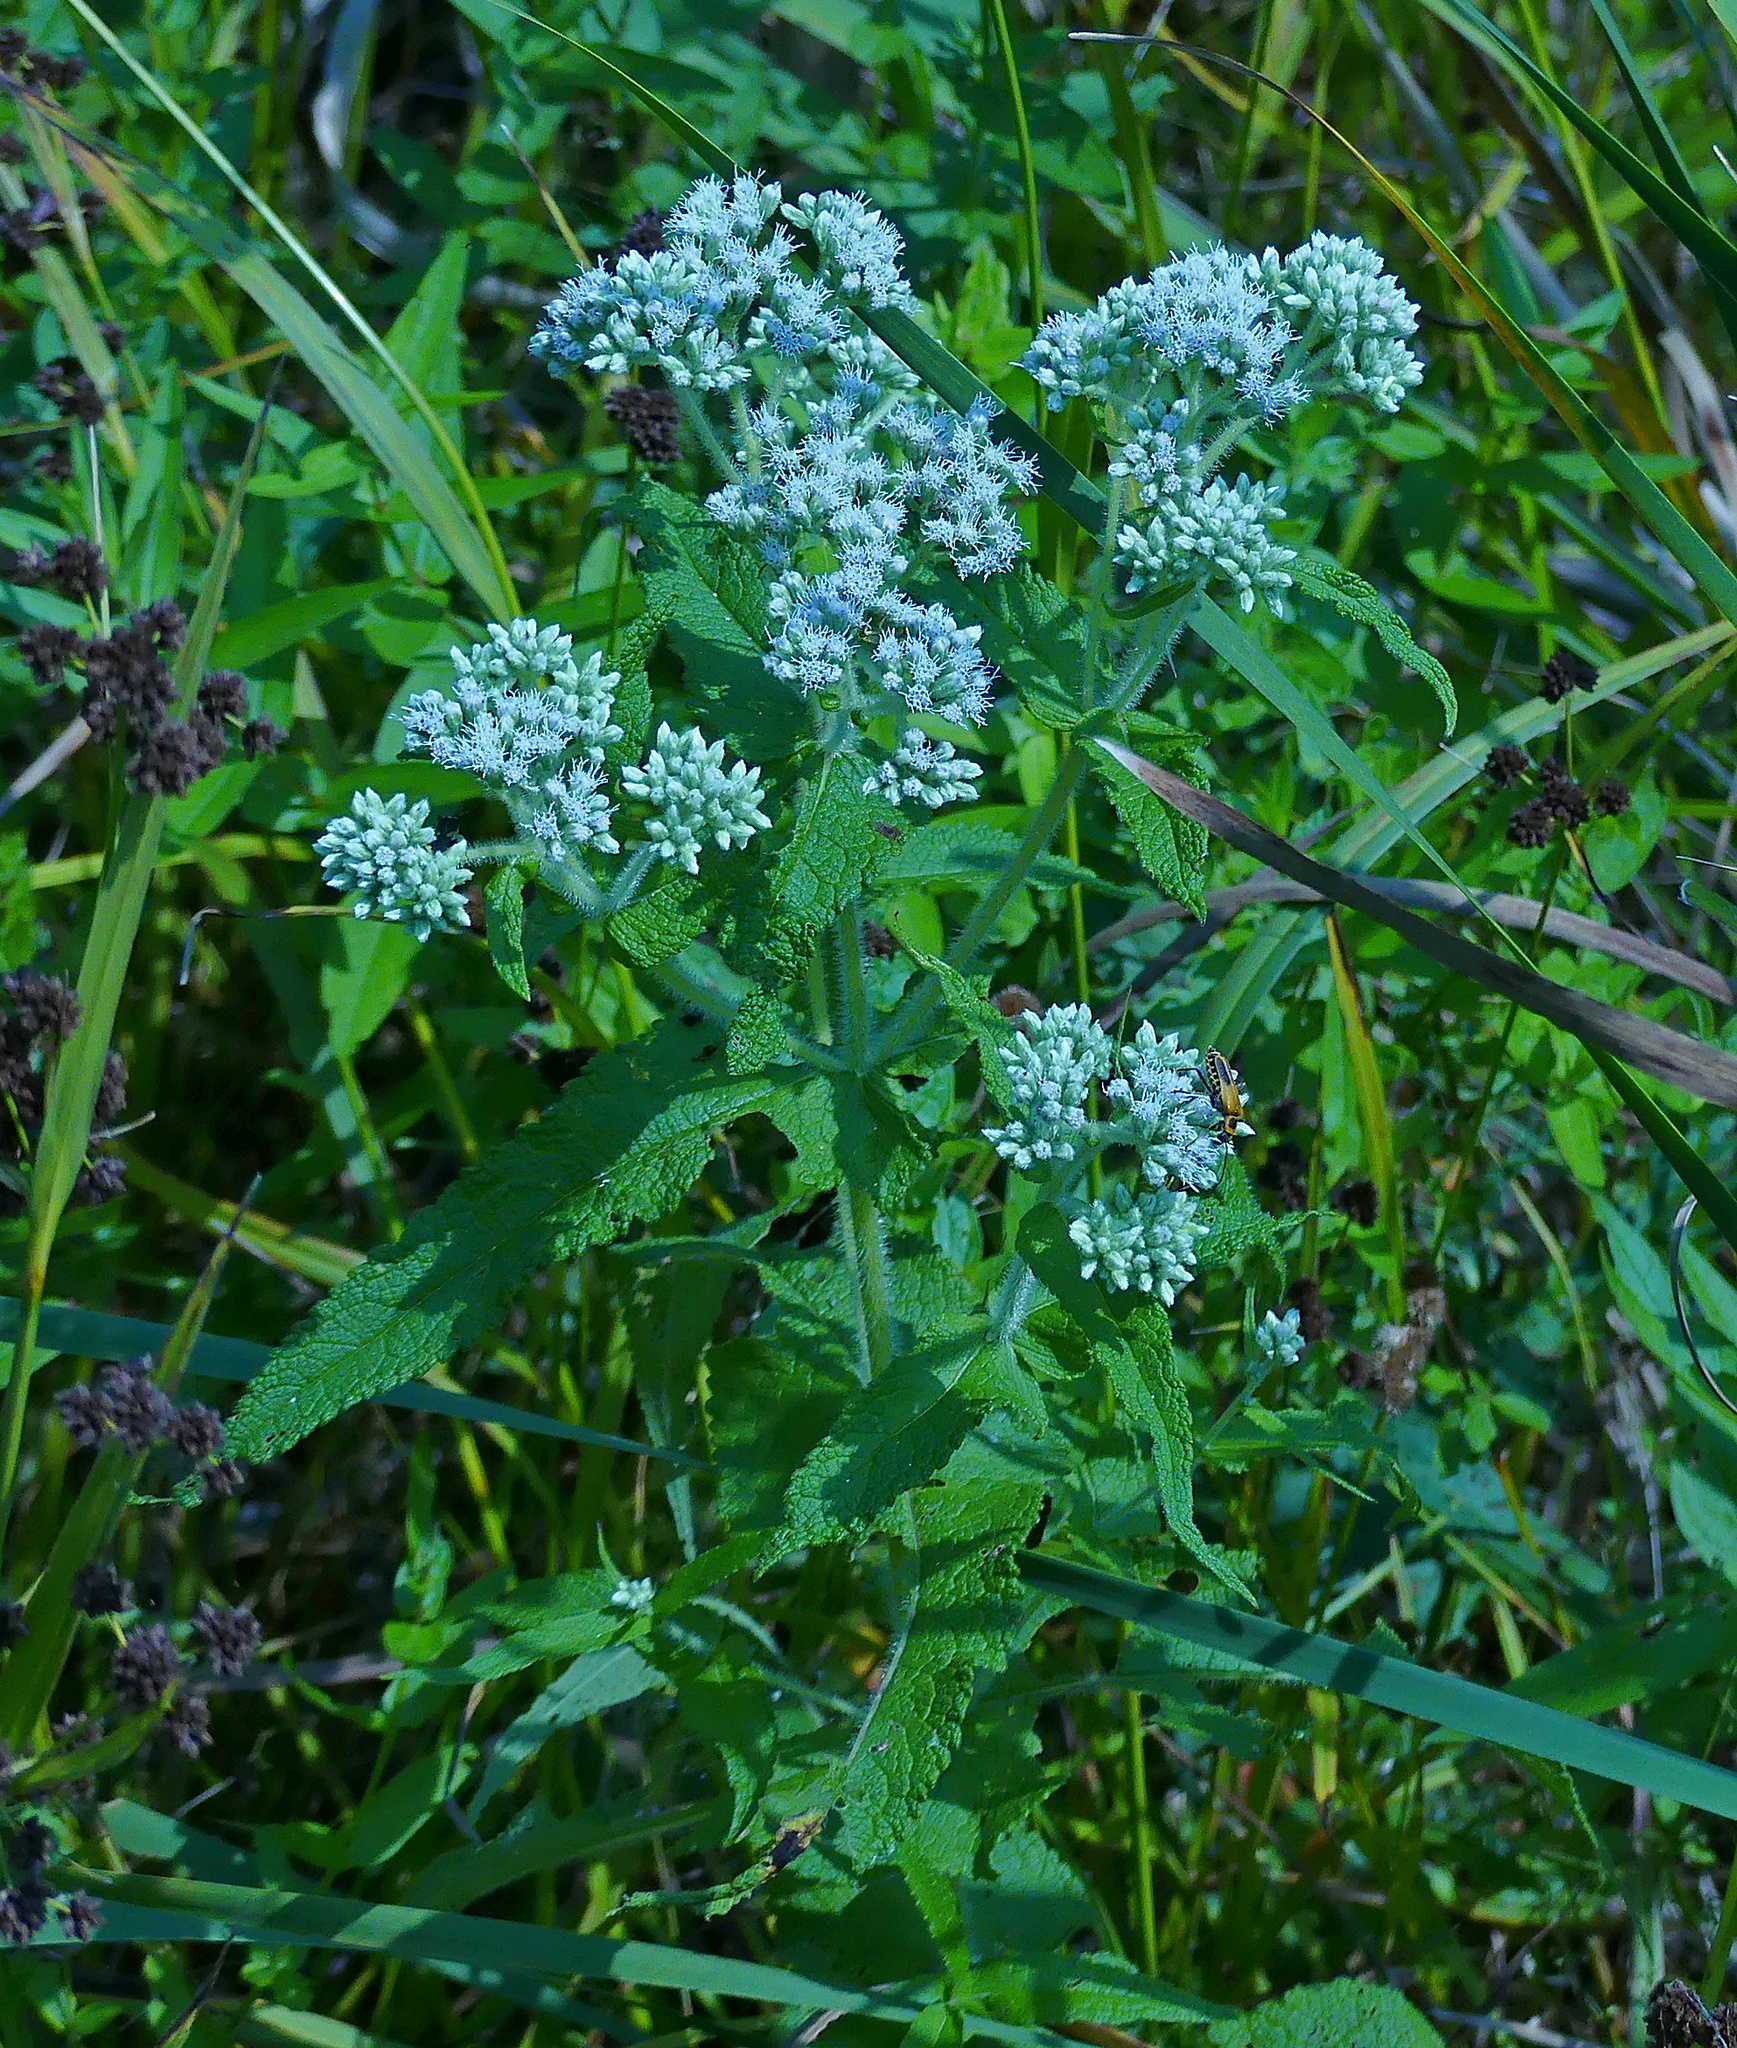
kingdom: Plantae
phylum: Tracheophyta
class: Magnoliopsida
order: Asterales
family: Asteraceae
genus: Eupatorium
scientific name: Eupatorium perfoliatum
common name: Boneset
